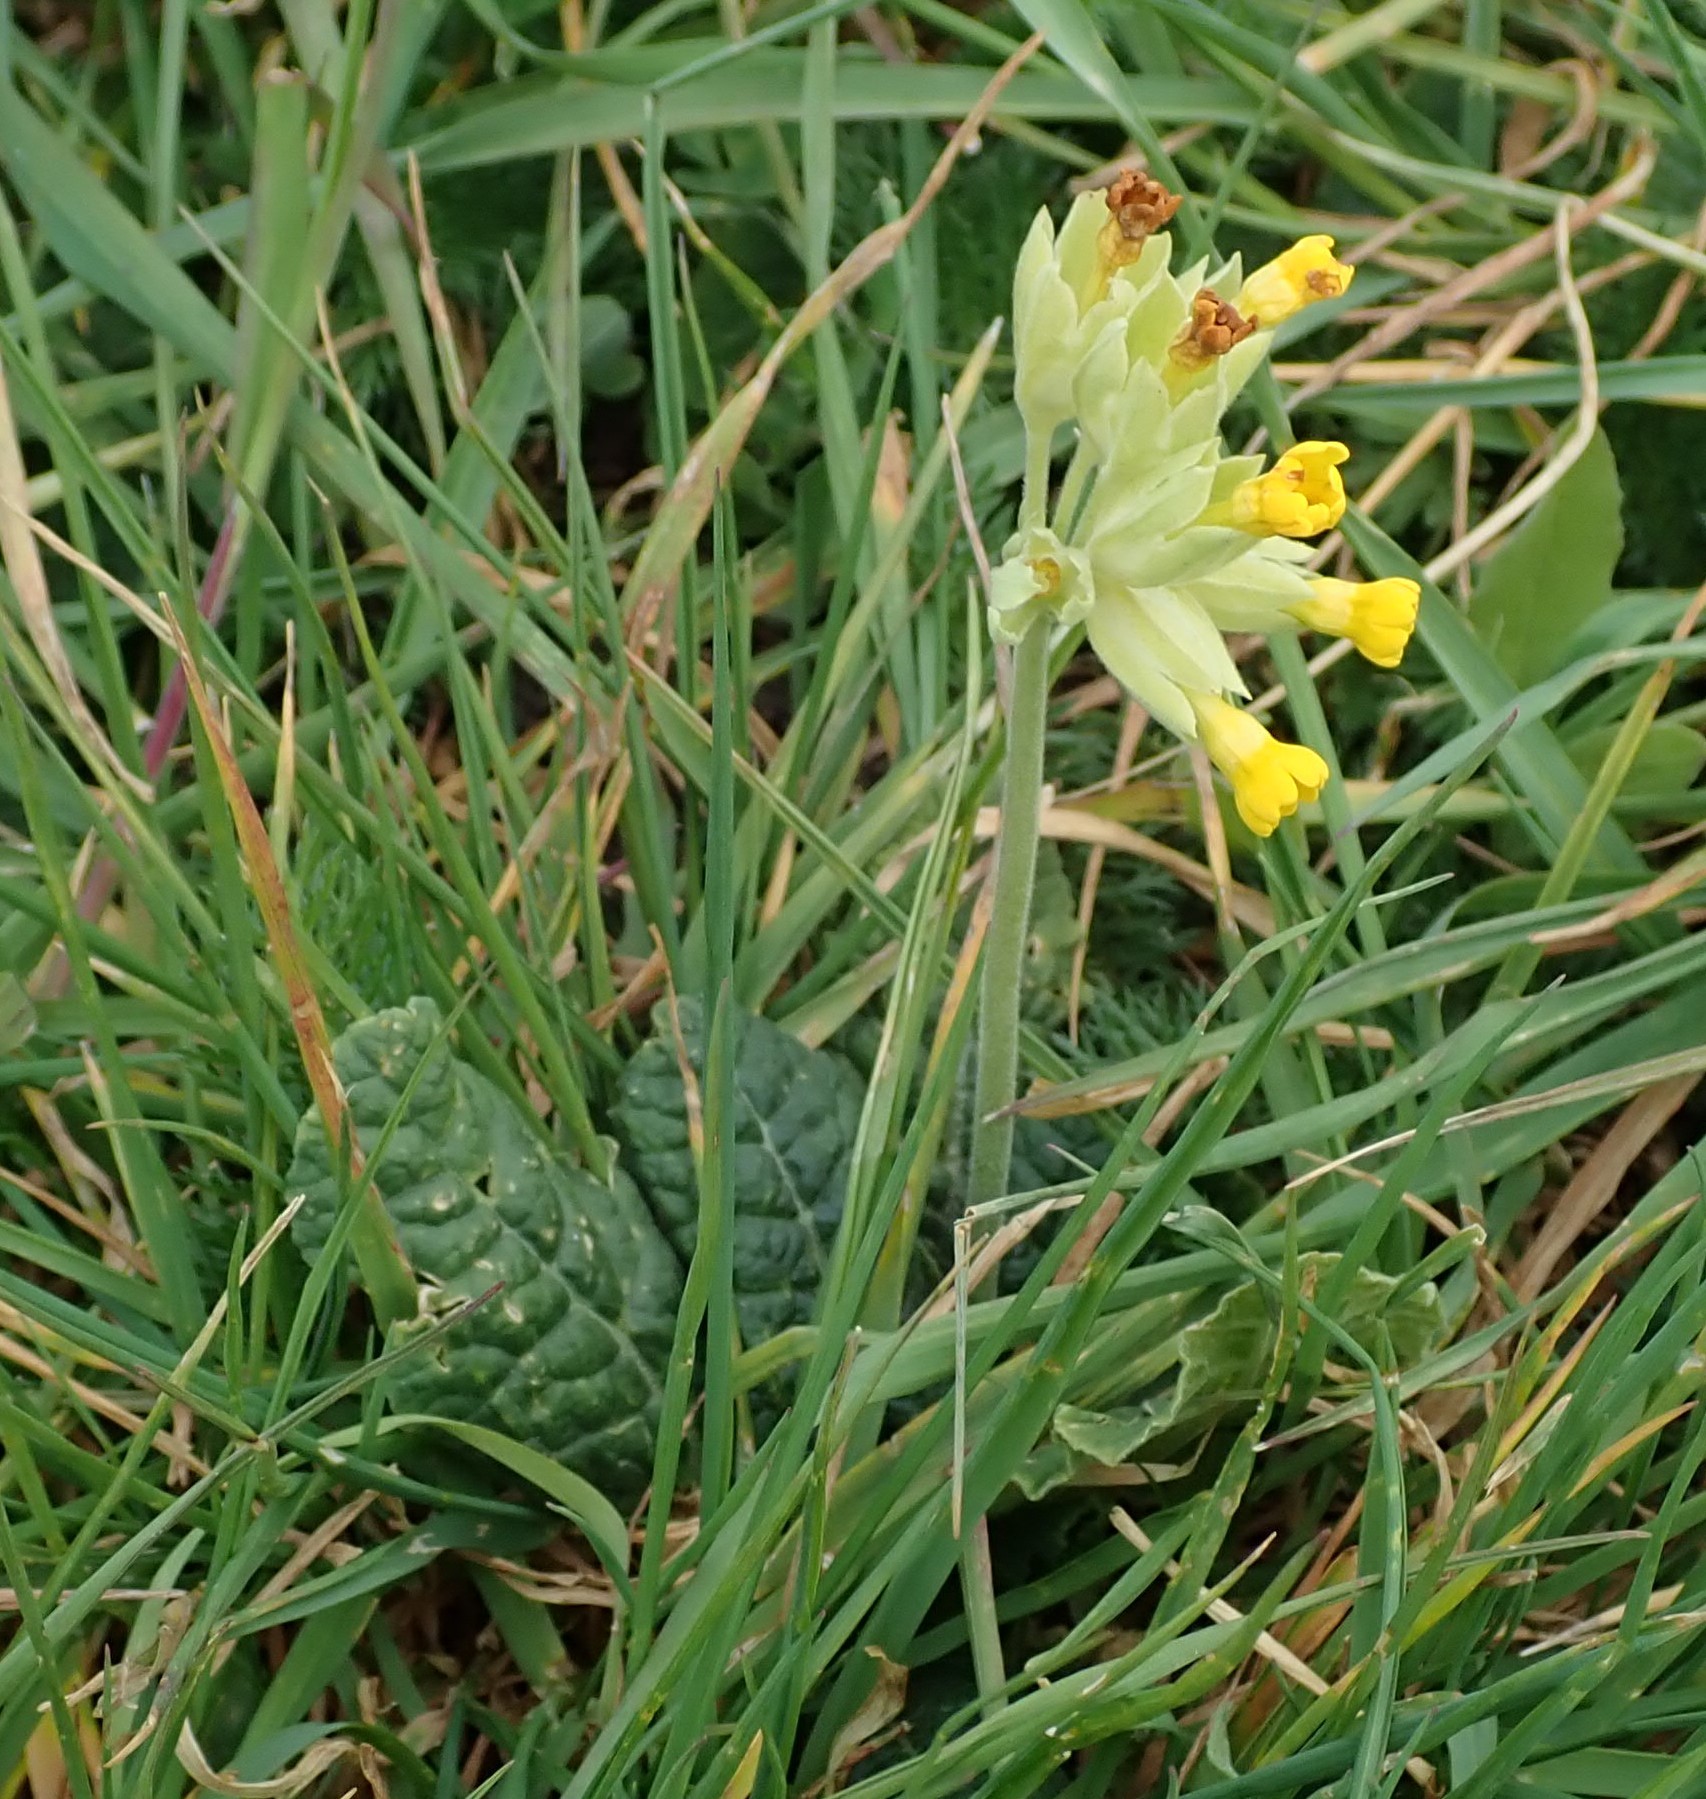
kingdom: Plantae
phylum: Tracheophyta
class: Magnoliopsida
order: Ericales
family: Primulaceae
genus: Primula
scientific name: Primula veris
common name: Cowslip
